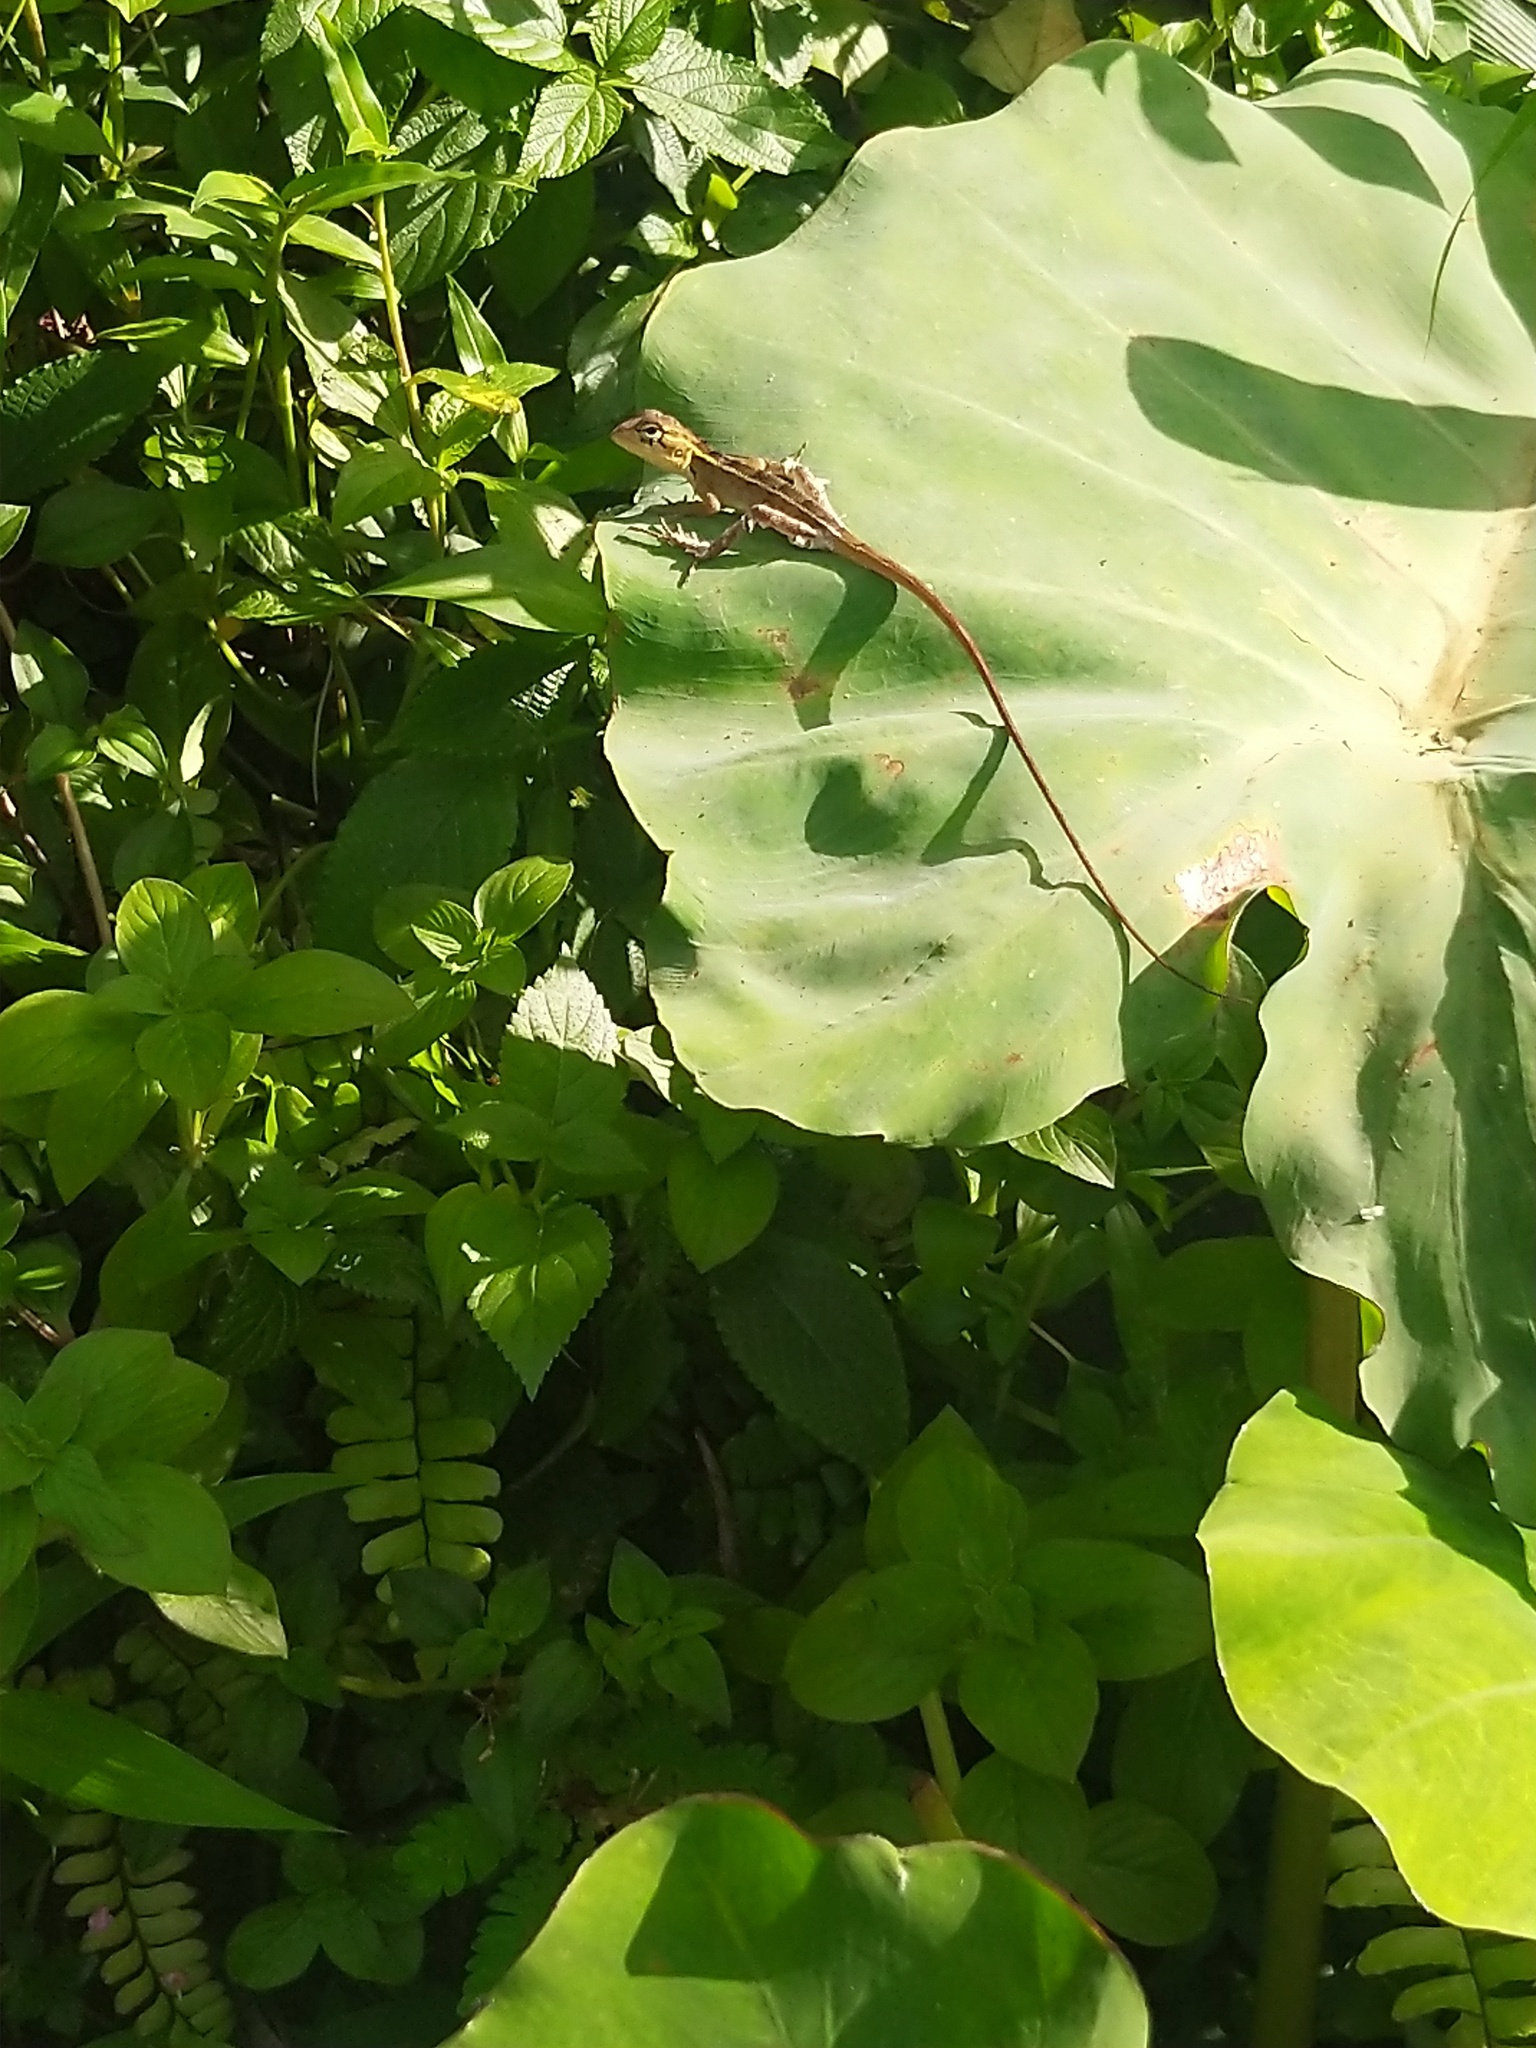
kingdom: Animalia
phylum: Chordata
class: Squamata
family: Agamidae
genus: Calotes
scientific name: Calotes versicolor
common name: Oriental garden lizard
